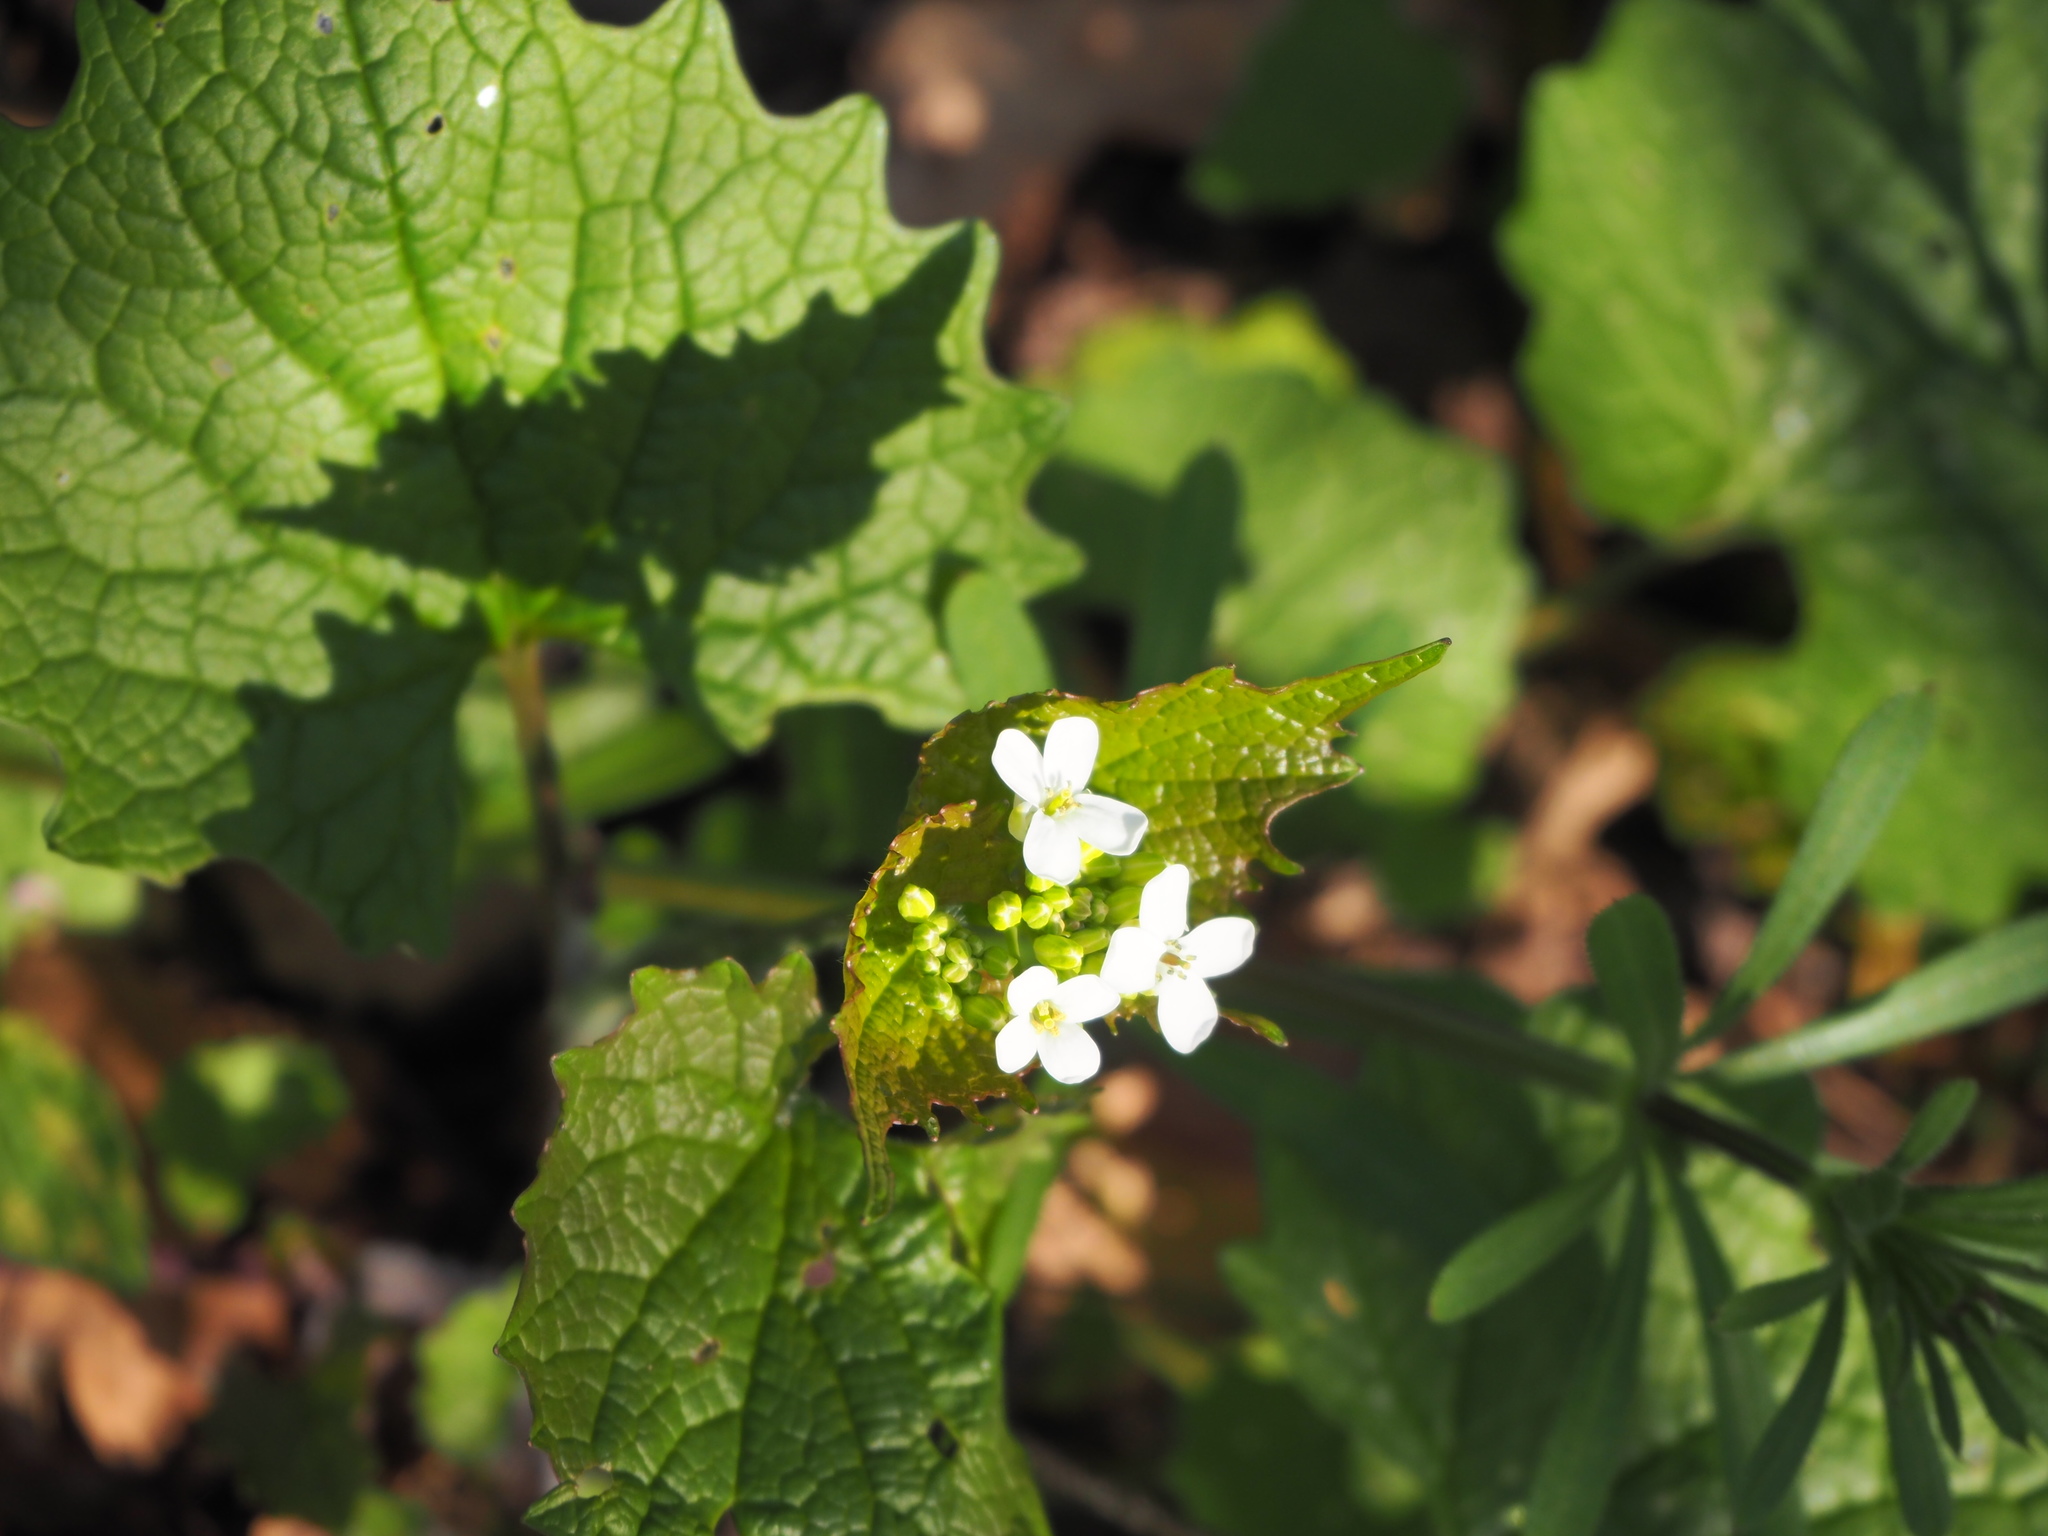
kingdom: Plantae
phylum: Tracheophyta
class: Magnoliopsida
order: Brassicales
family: Brassicaceae
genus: Alliaria
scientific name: Alliaria petiolata
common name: Garlic mustard
